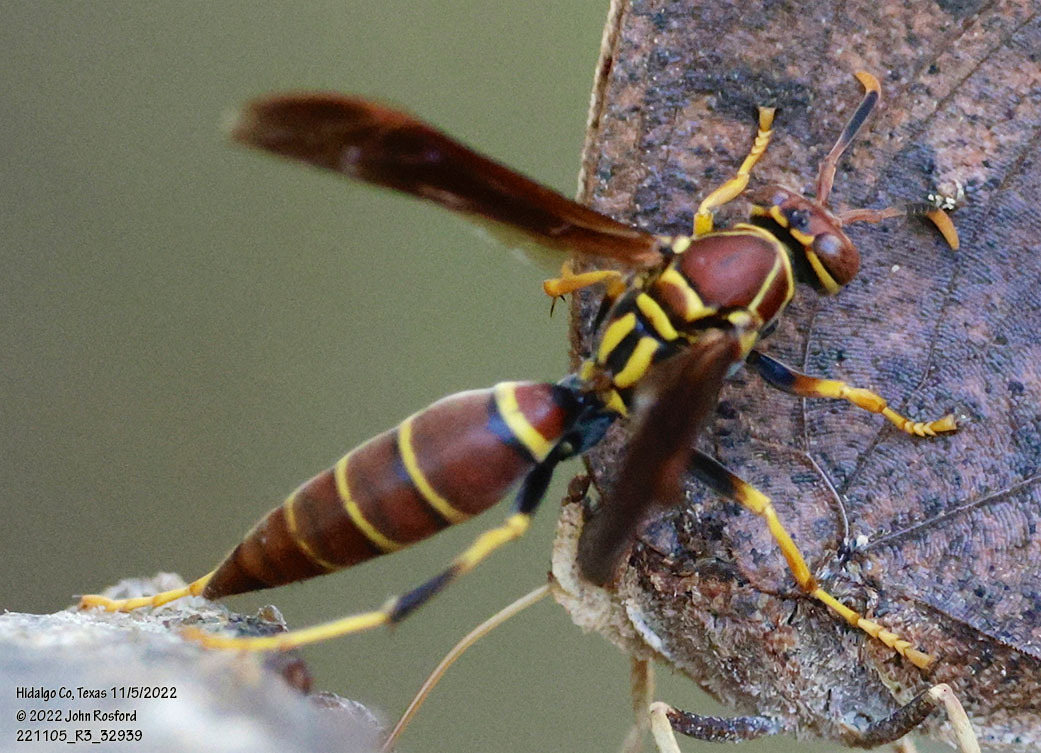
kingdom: Animalia
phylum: Arthropoda
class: Insecta
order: Hymenoptera
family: Eumenidae
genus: Polistes
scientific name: Polistes instabilis
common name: Unstable paper wasp
